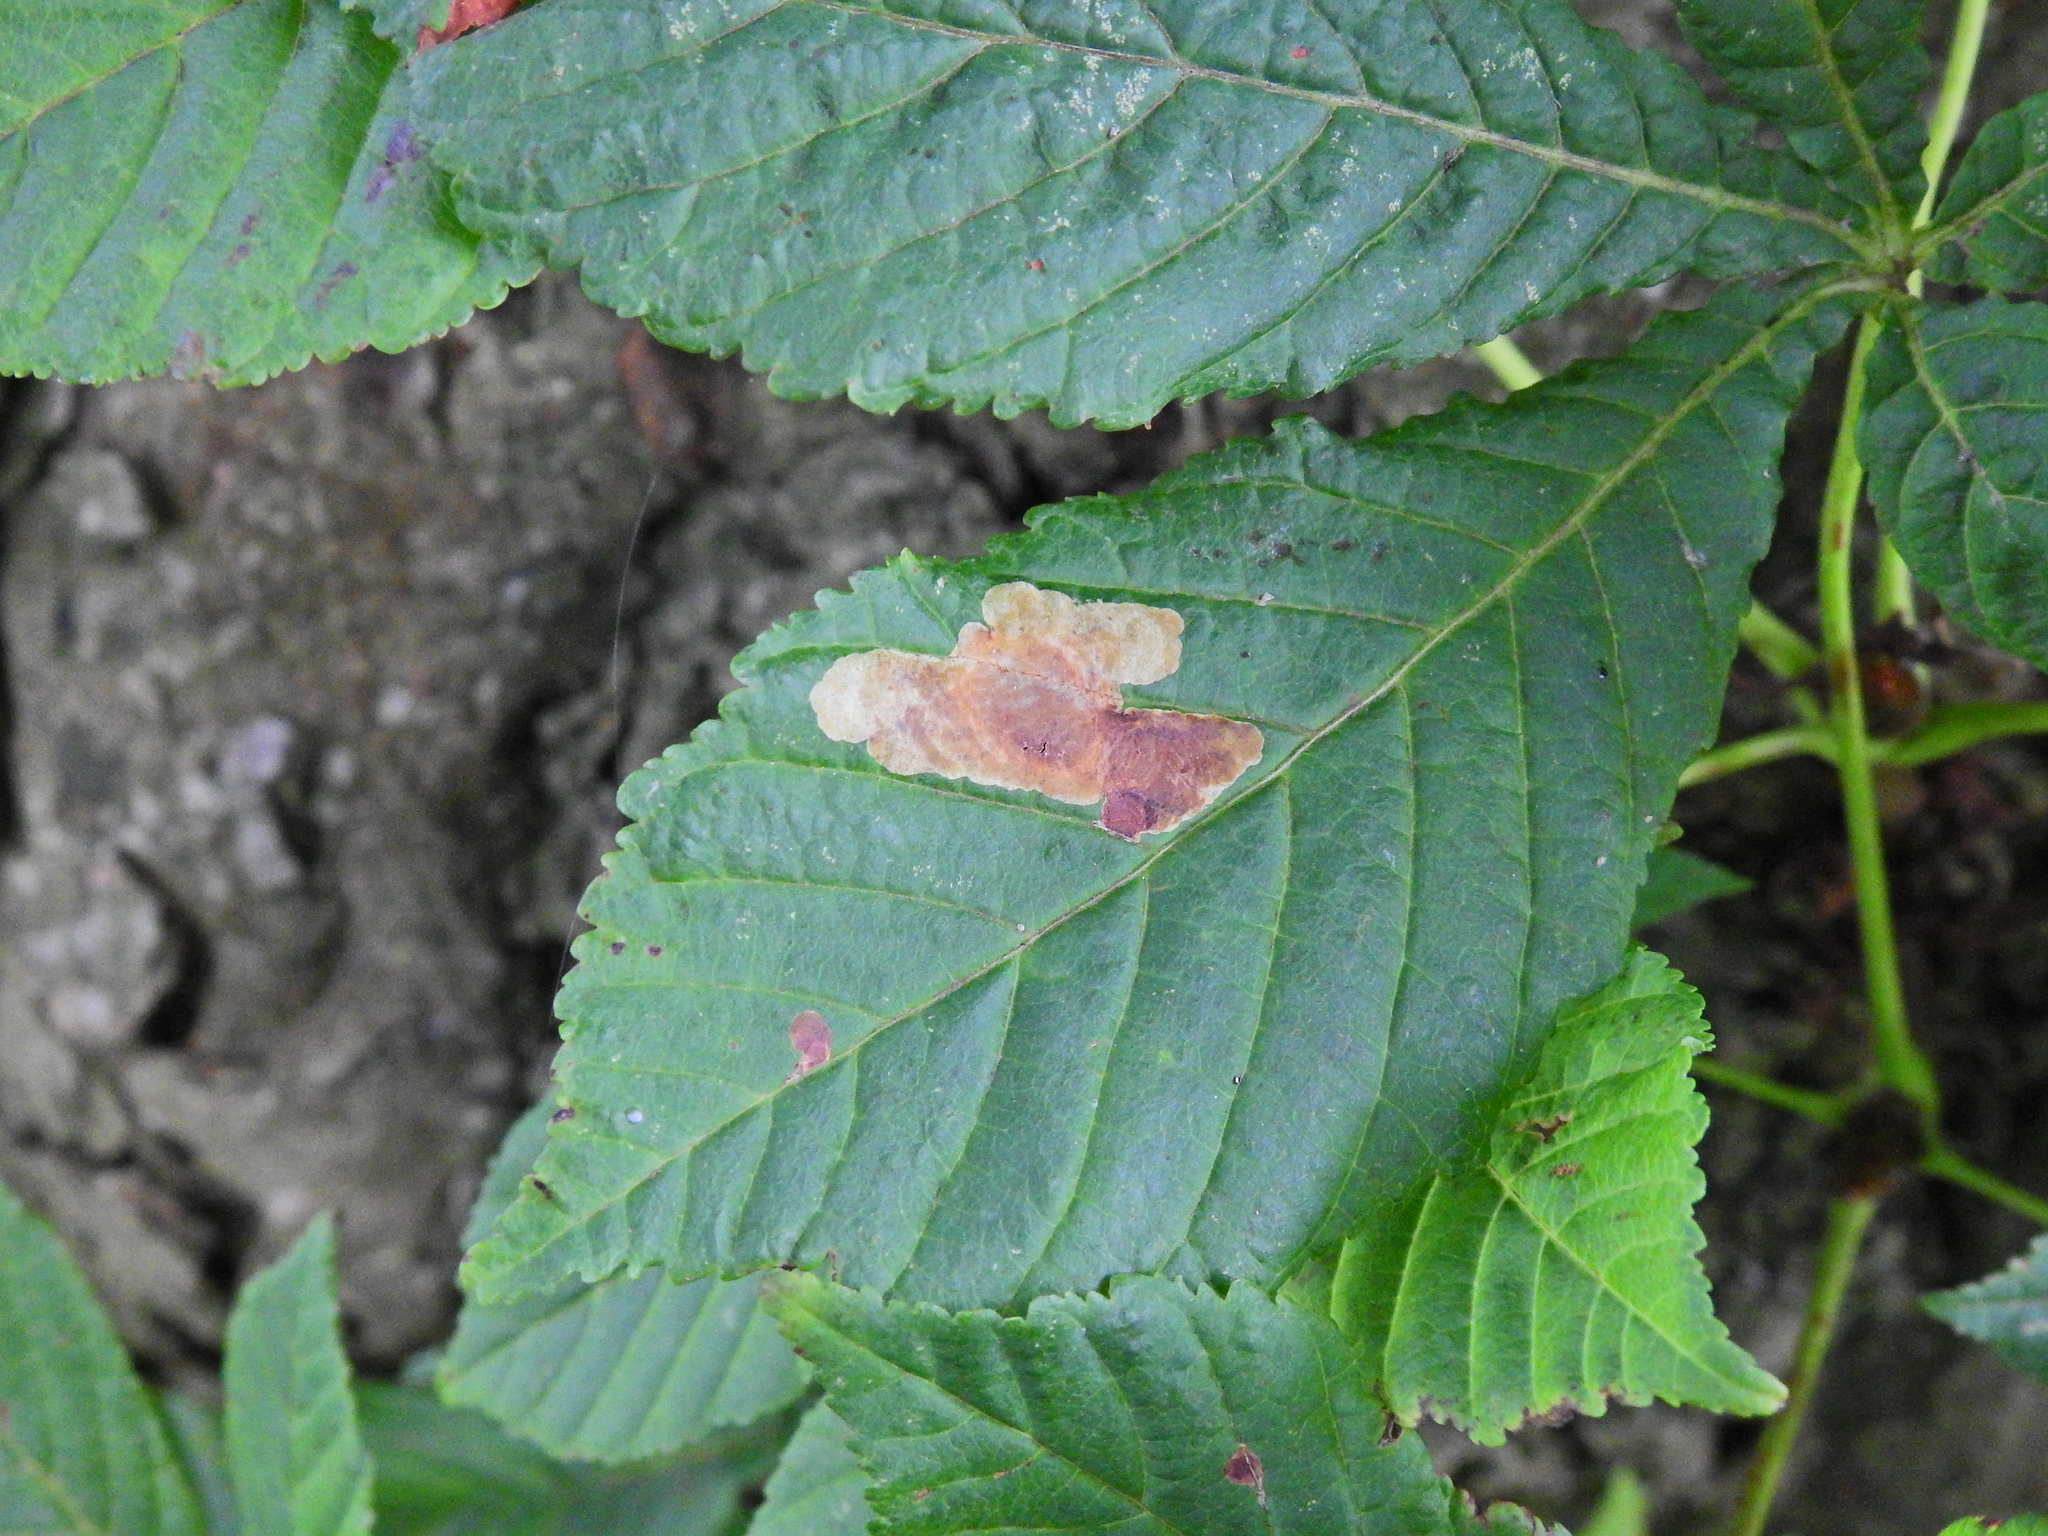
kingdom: Animalia
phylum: Arthropoda
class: Insecta
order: Lepidoptera
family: Gracillariidae
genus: Cameraria
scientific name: Cameraria ohridella
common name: Horse-chestnut leaf-miner
